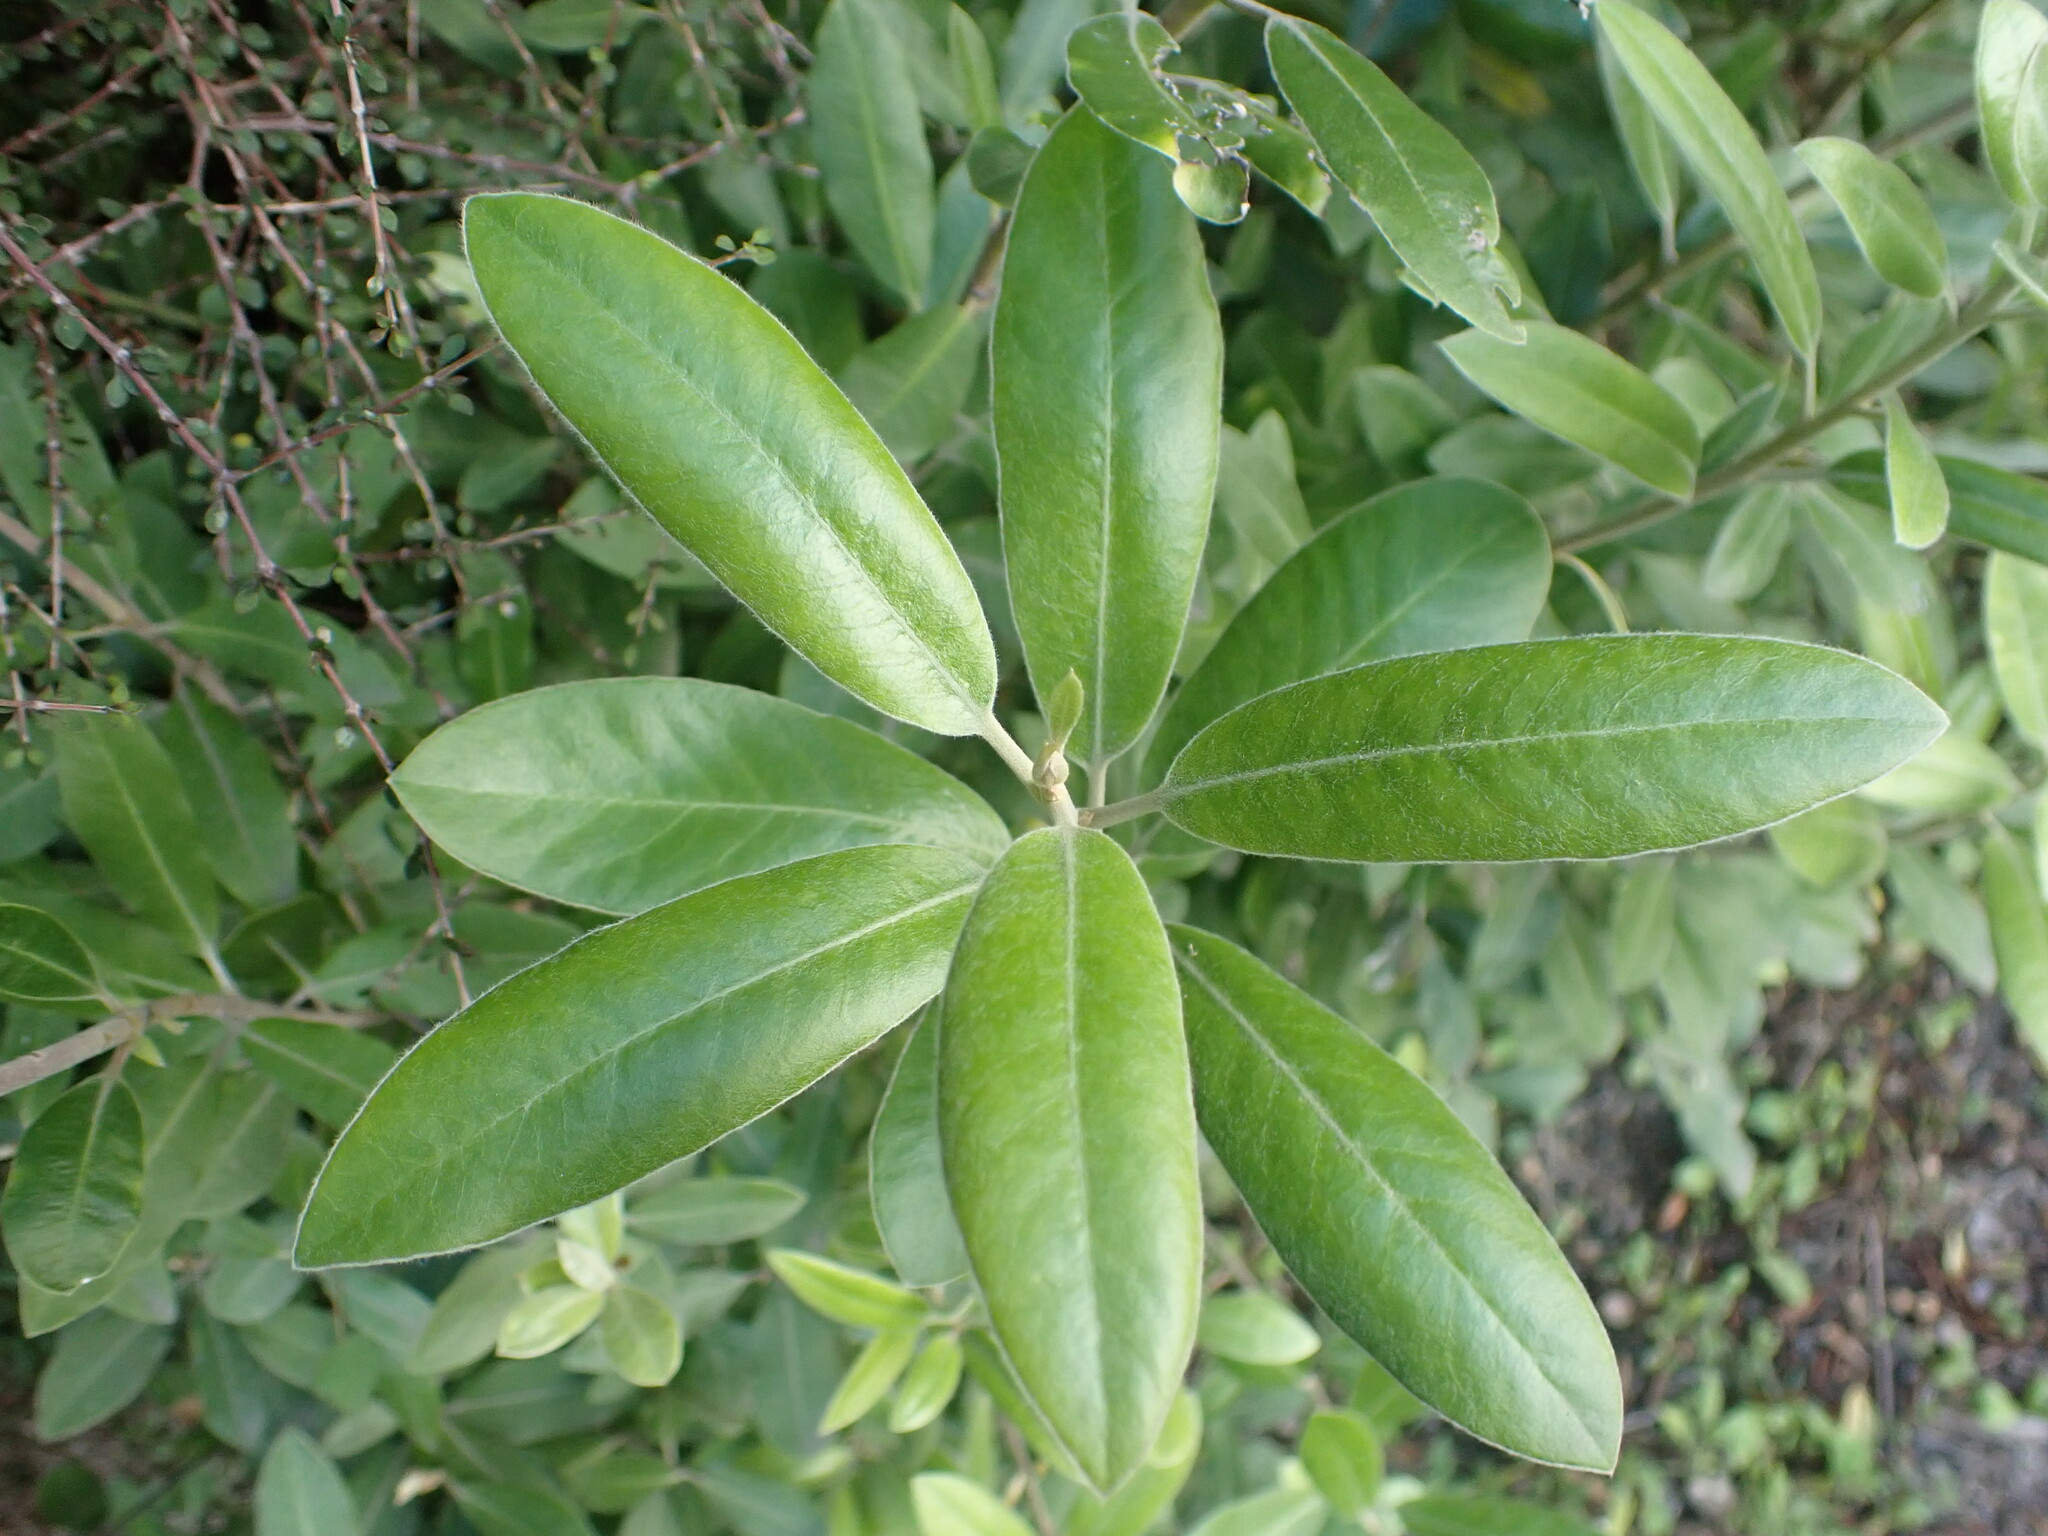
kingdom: Plantae
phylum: Tracheophyta
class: Magnoliopsida
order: Apiales
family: Pittosporaceae
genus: Pittosporum
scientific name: Pittosporum ralphii
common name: Ralph's desertwillow
